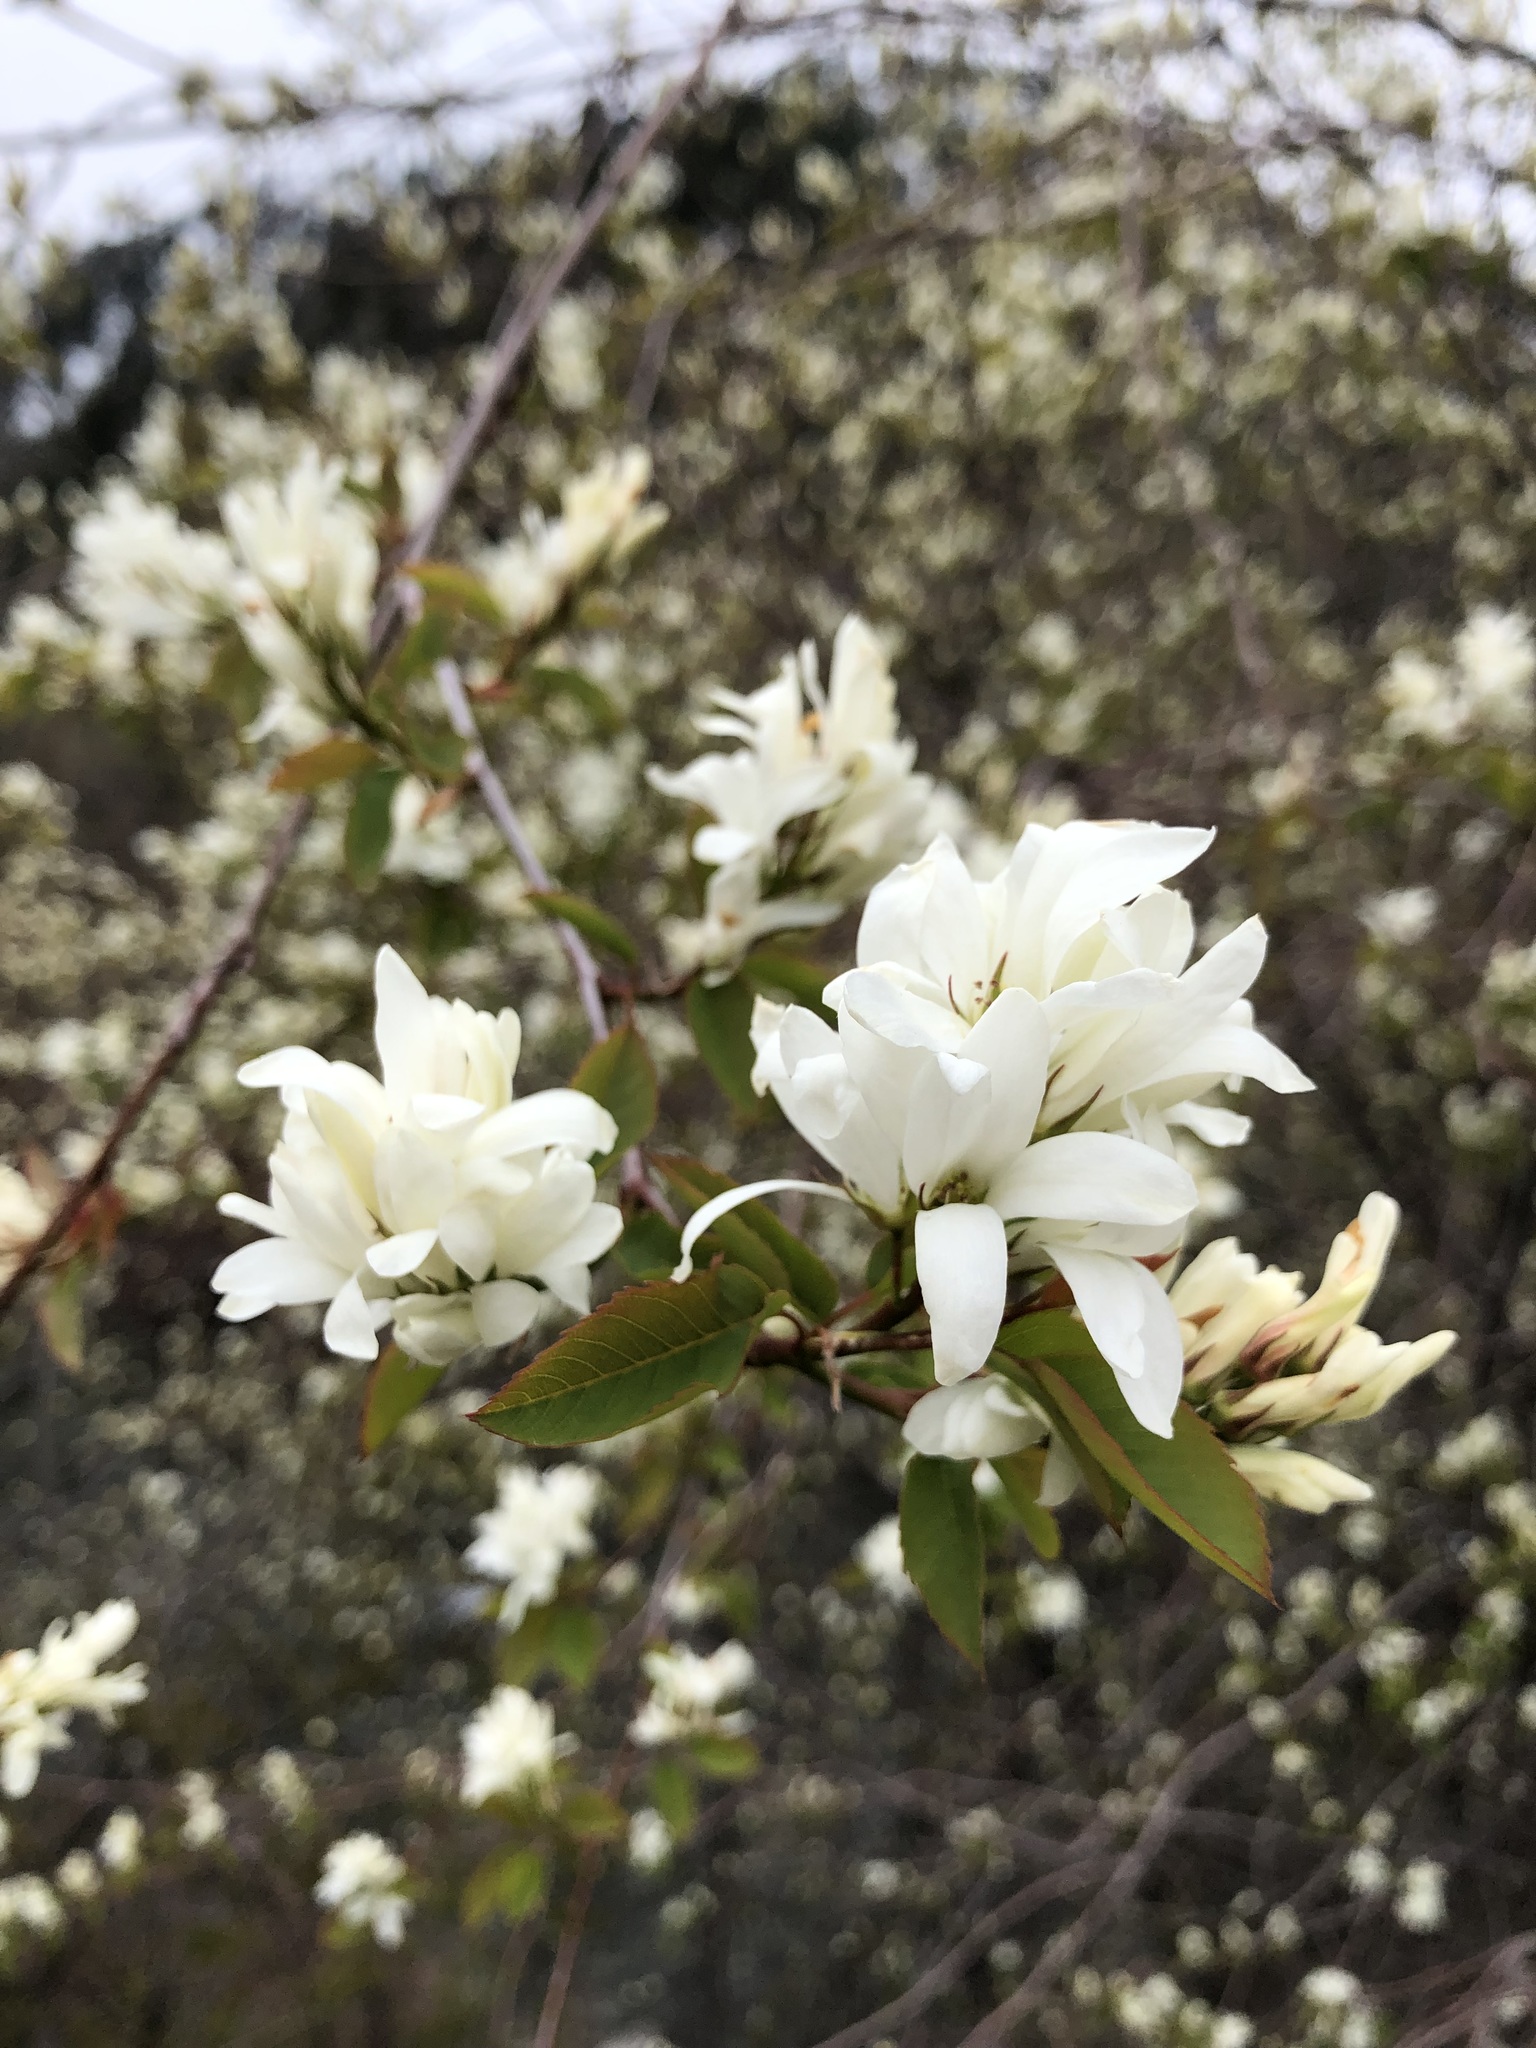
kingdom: Plantae
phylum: Tracheophyta
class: Magnoliopsida
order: Rosales
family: Rosaceae
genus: Amelanchier
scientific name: Amelanchier alnifolia
